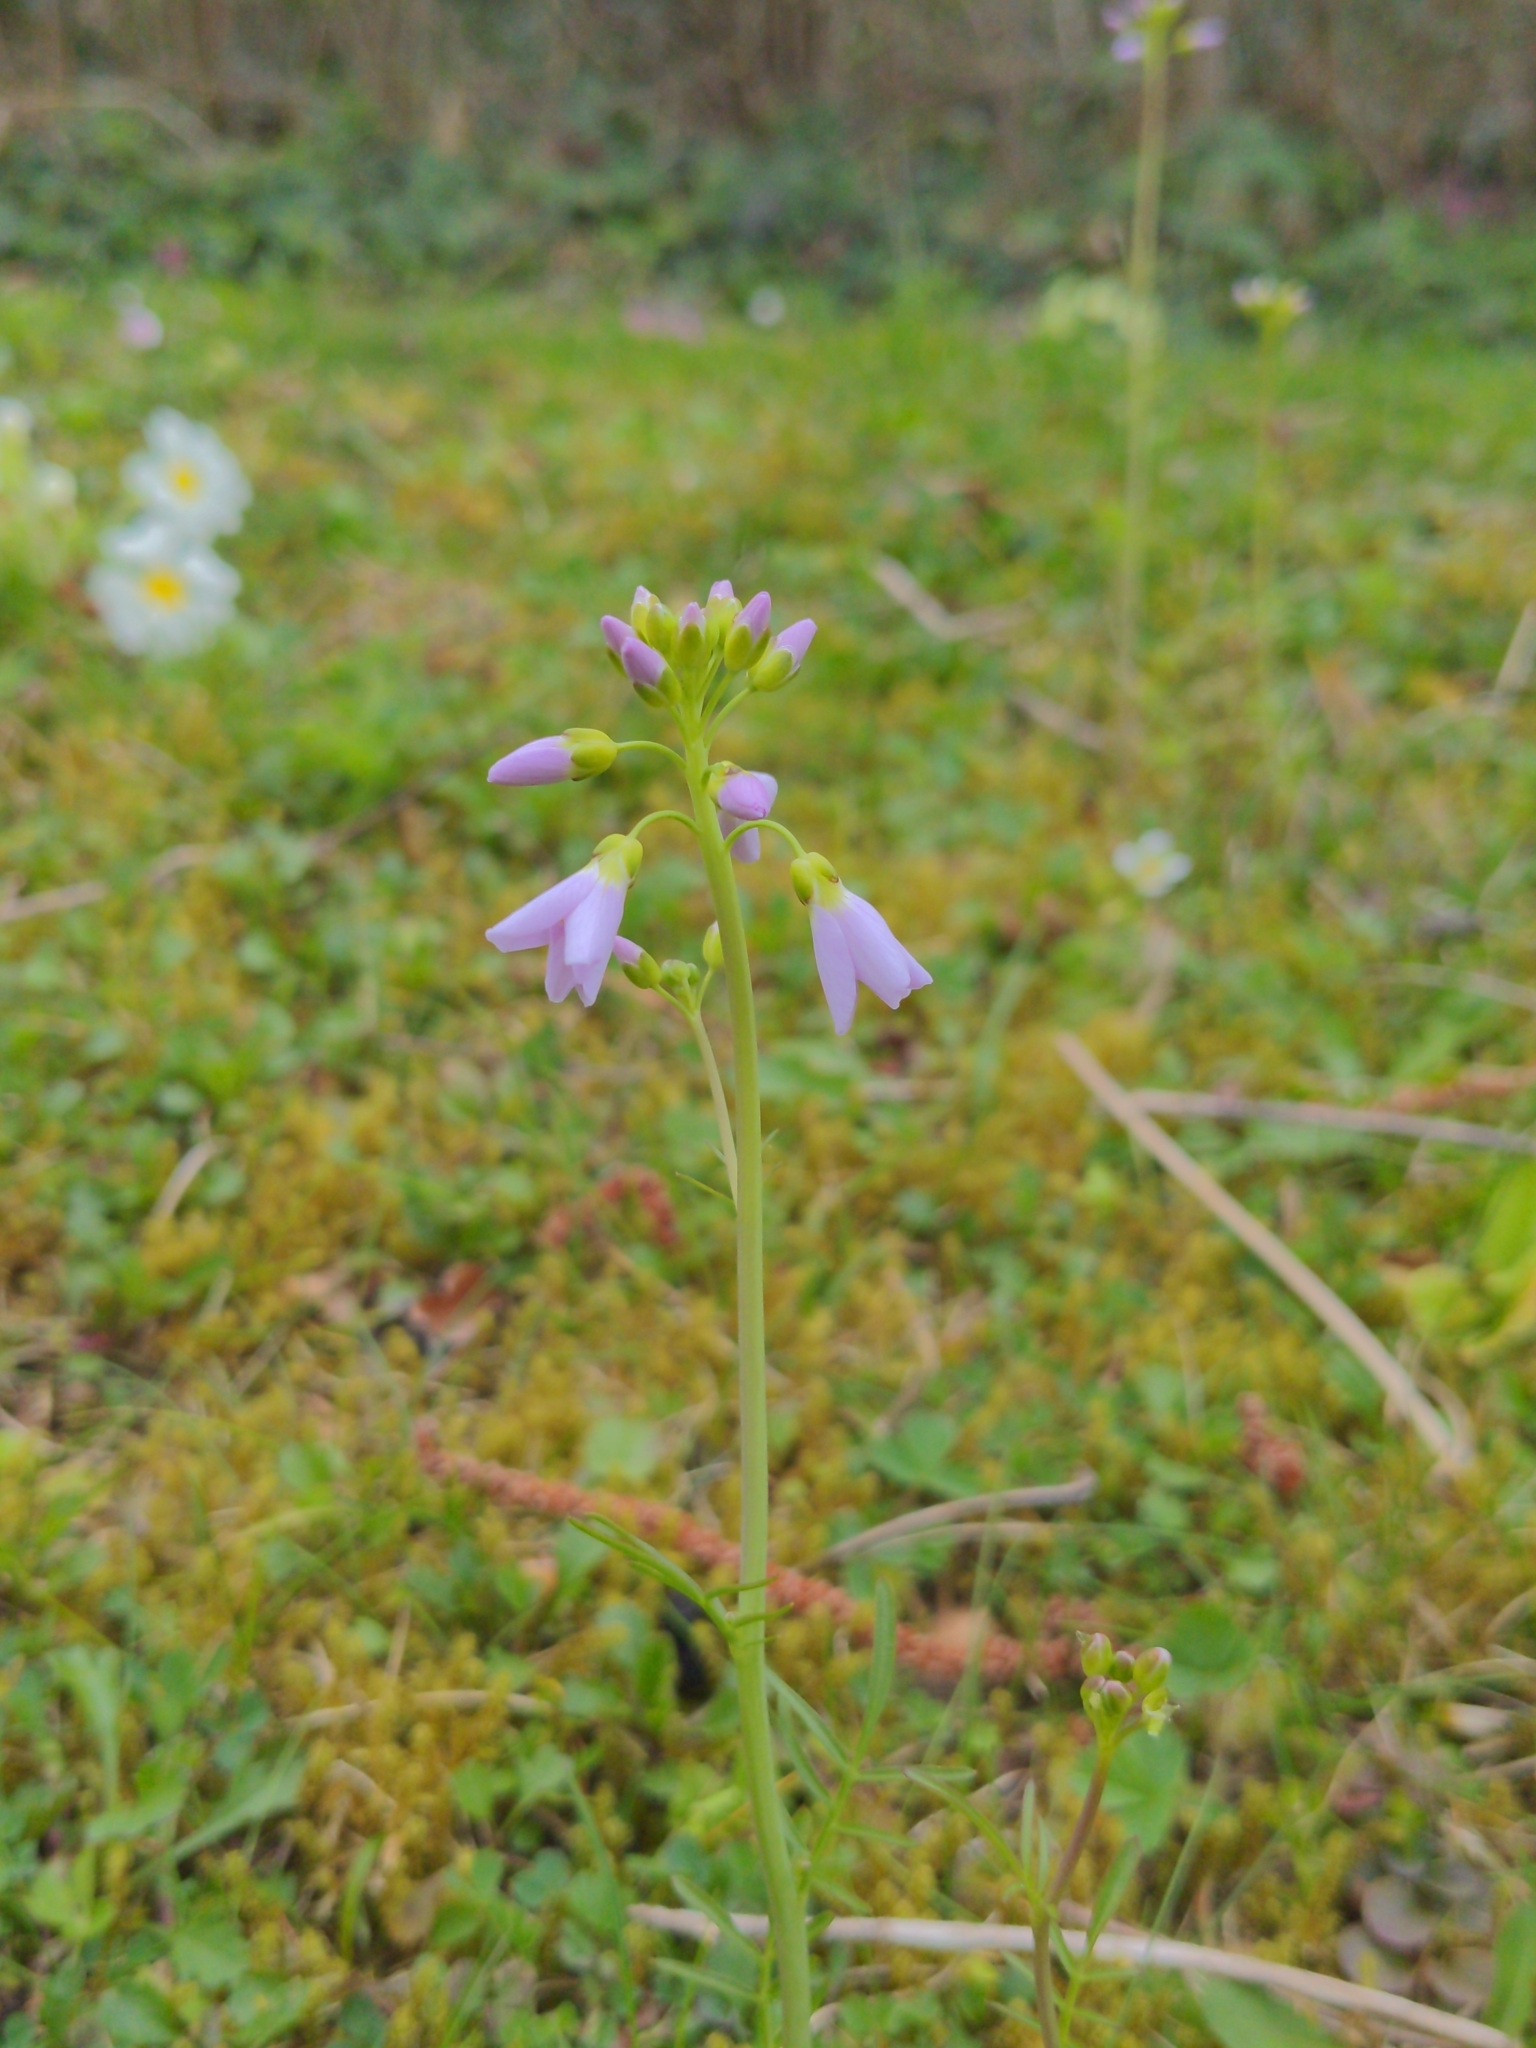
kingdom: Plantae
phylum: Tracheophyta
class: Magnoliopsida
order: Brassicales
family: Brassicaceae
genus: Cardamine
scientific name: Cardamine pratensis
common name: Cuckoo flower
